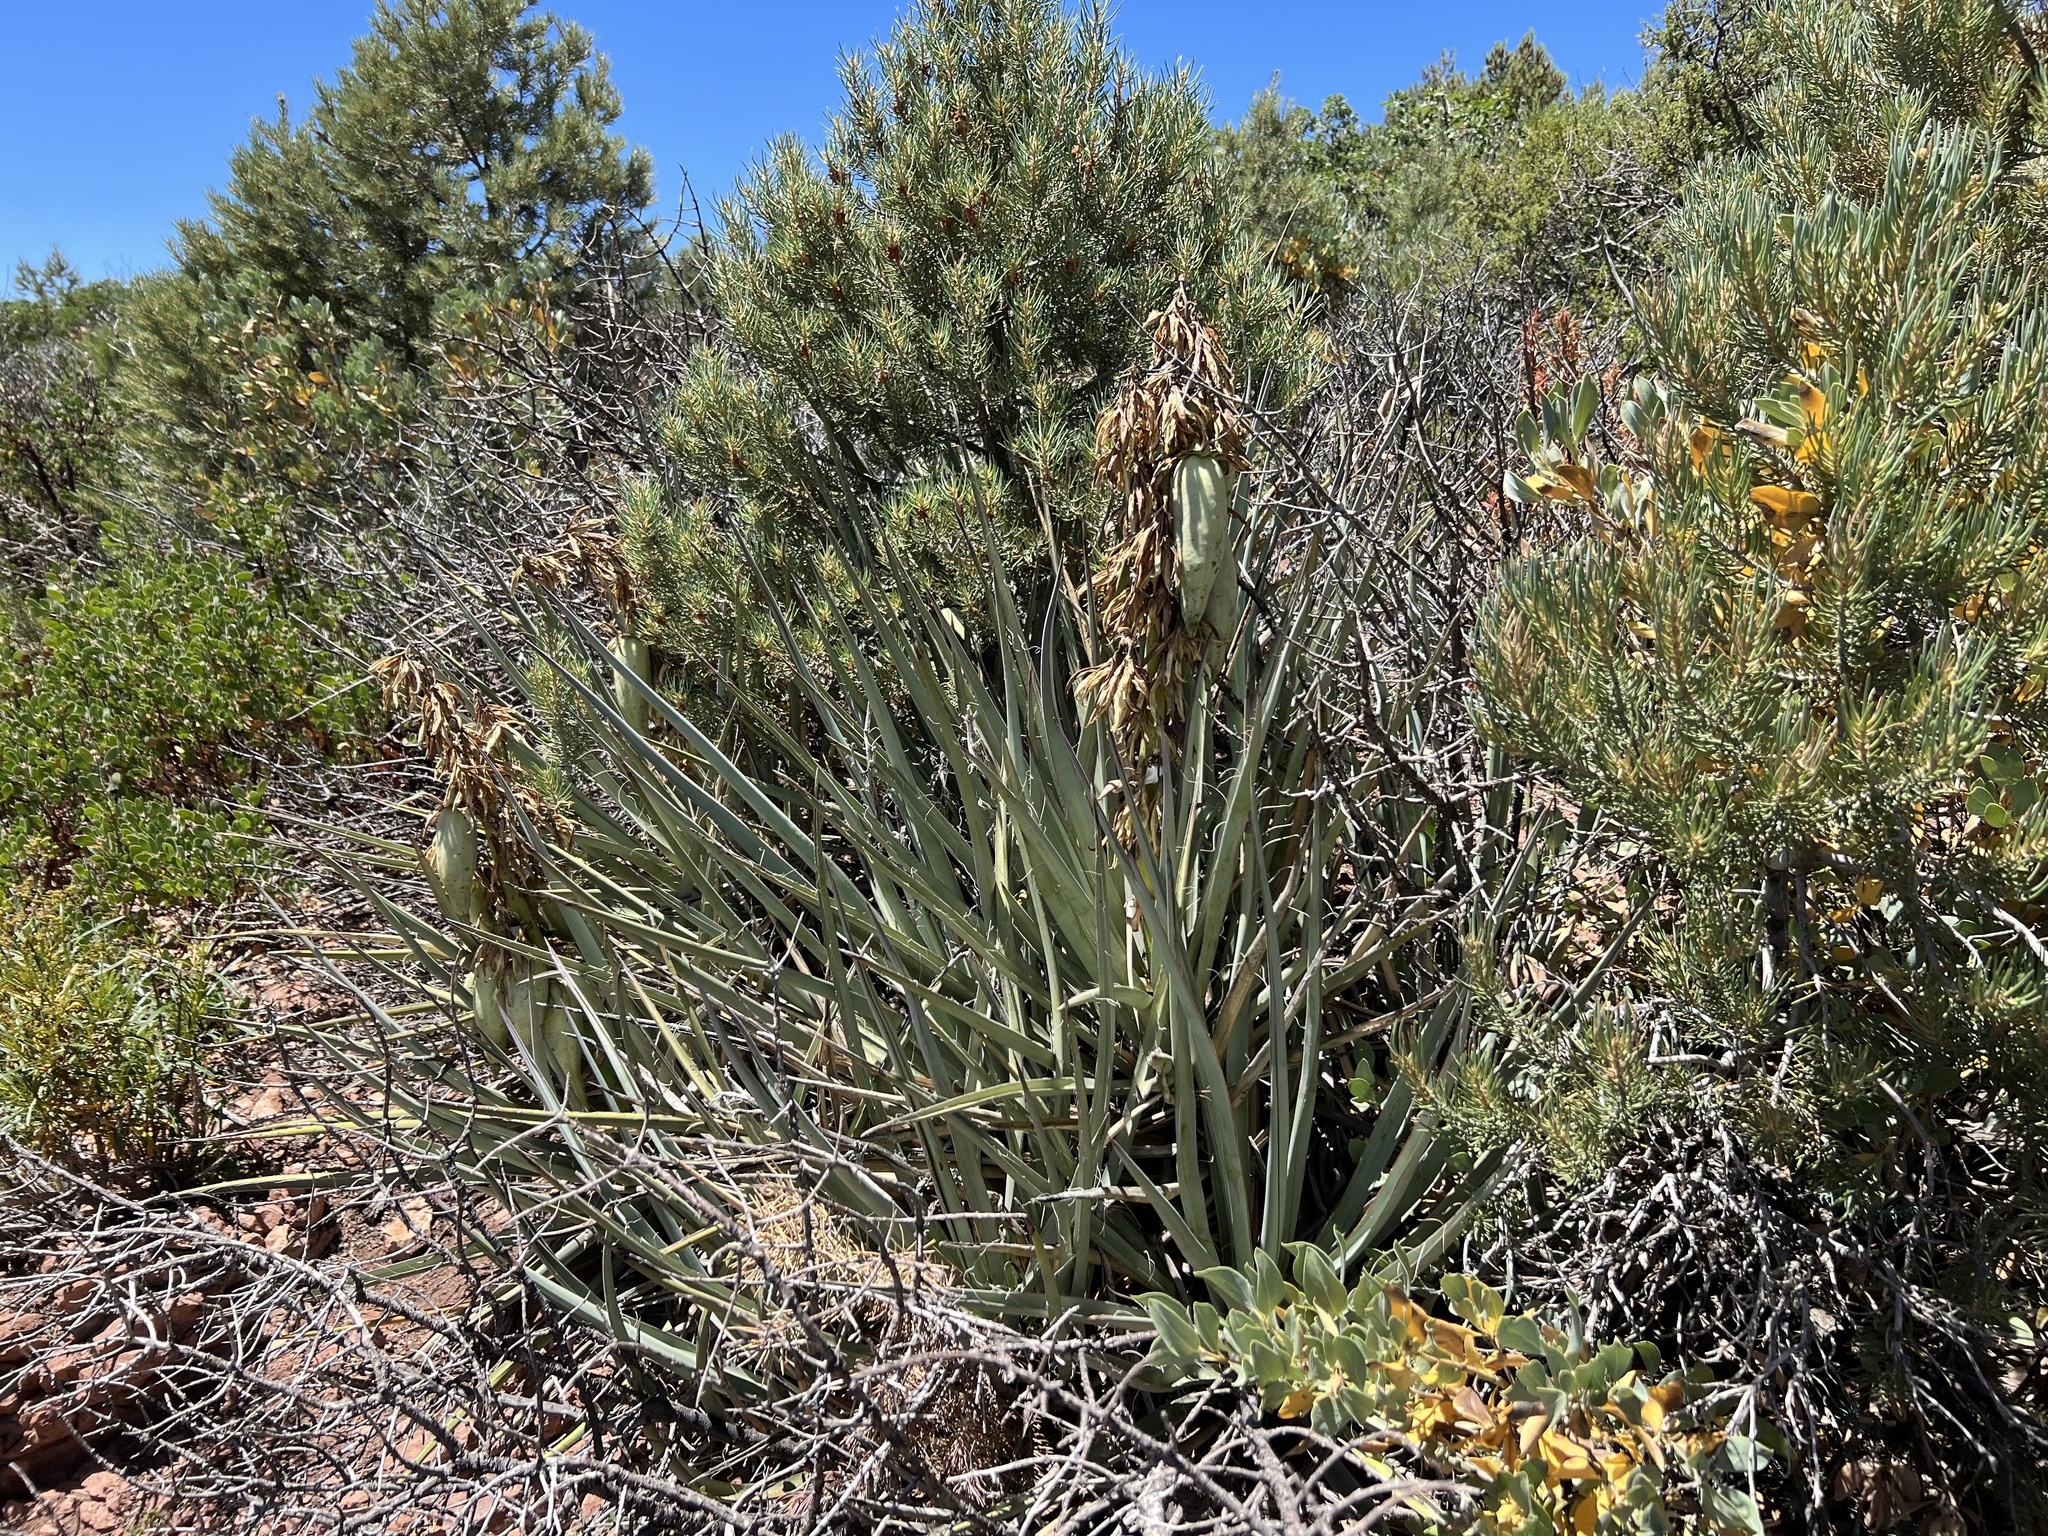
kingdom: Plantae
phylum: Tracheophyta
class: Liliopsida
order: Asparagales
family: Asparagaceae
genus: Yucca
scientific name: Yucca baccata
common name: Banana yucca
